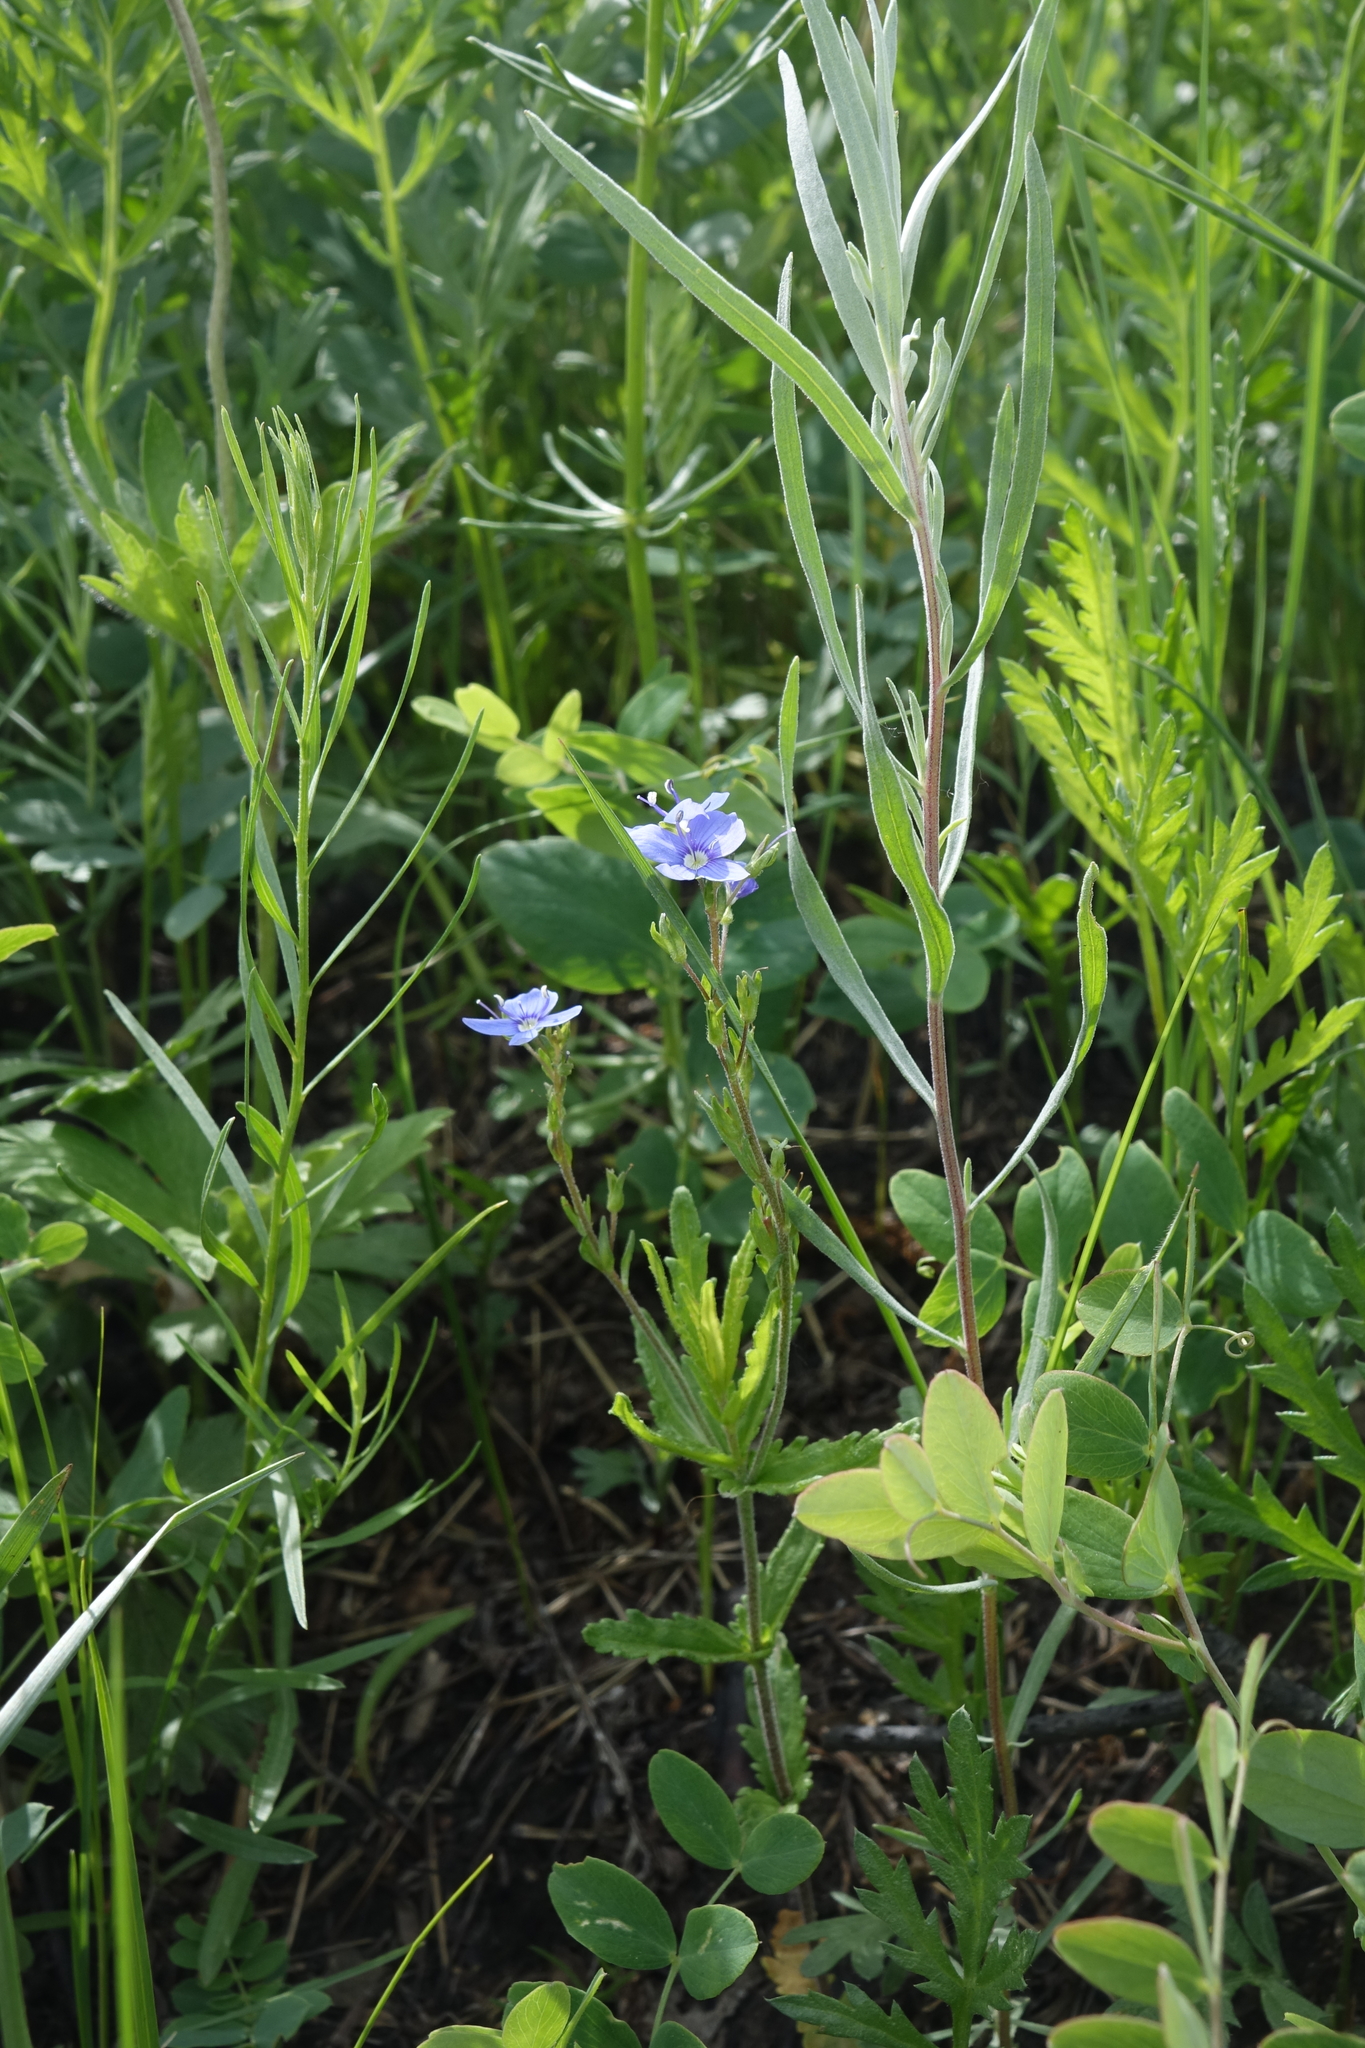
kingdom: Plantae
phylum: Tracheophyta
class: Magnoliopsida
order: Lamiales
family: Plantaginaceae
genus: Veronica
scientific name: Veronica krylovii
